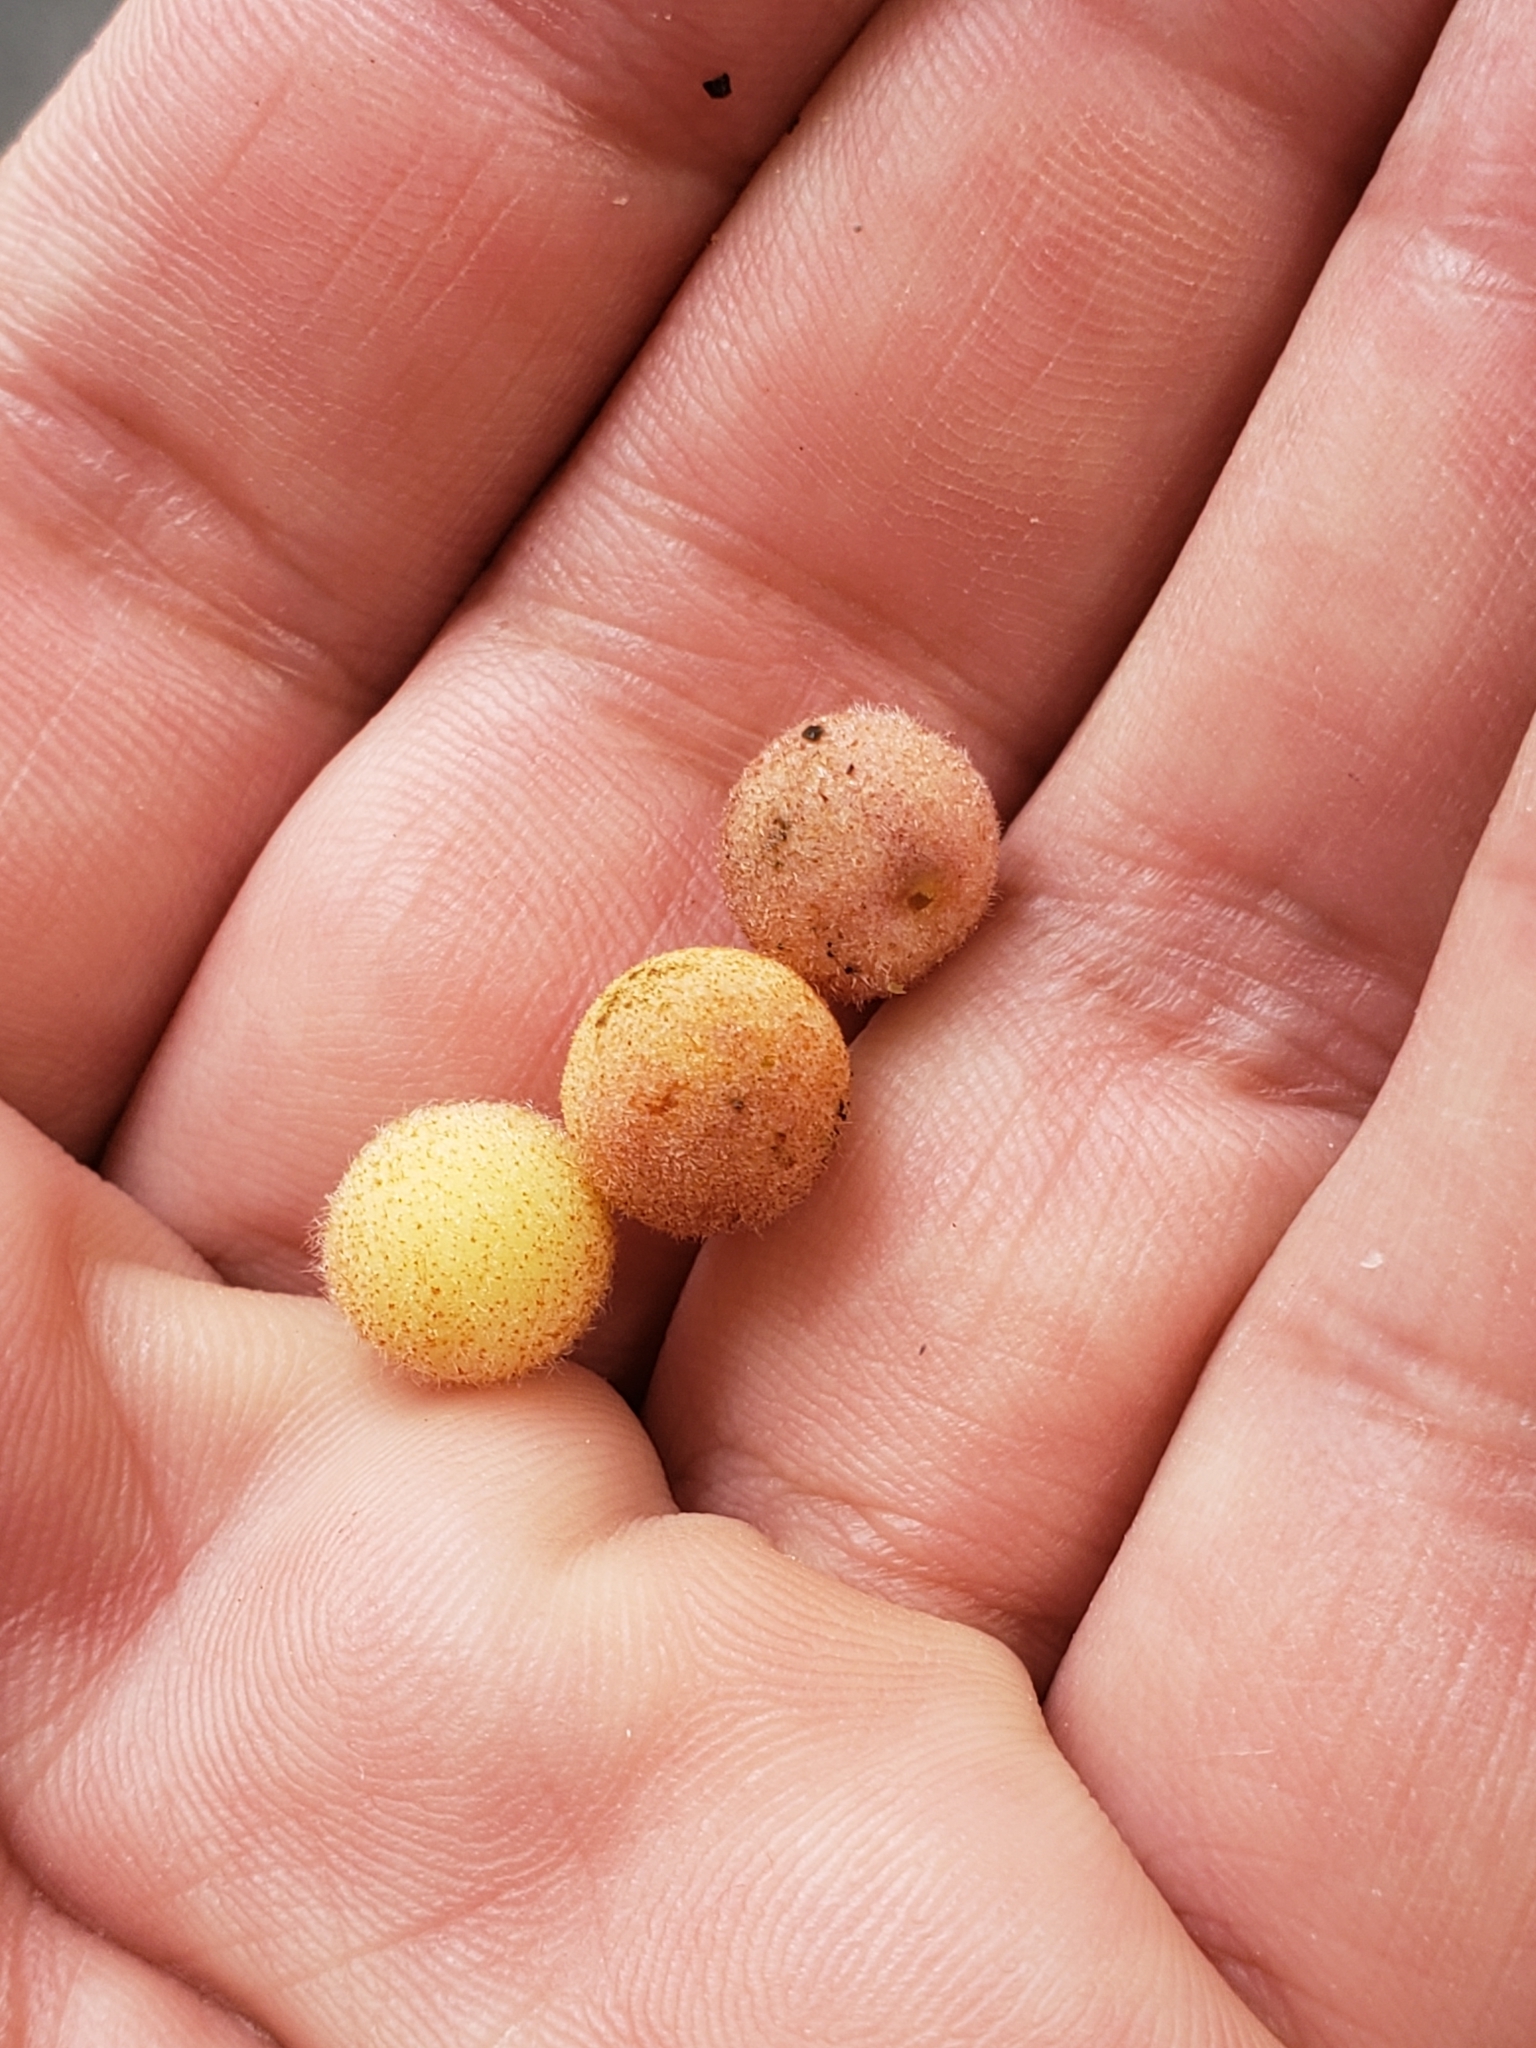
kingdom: Animalia
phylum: Arthropoda
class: Insecta
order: Hymenoptera
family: Cynipidae
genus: Philonix
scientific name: Philonix fulvicollis
